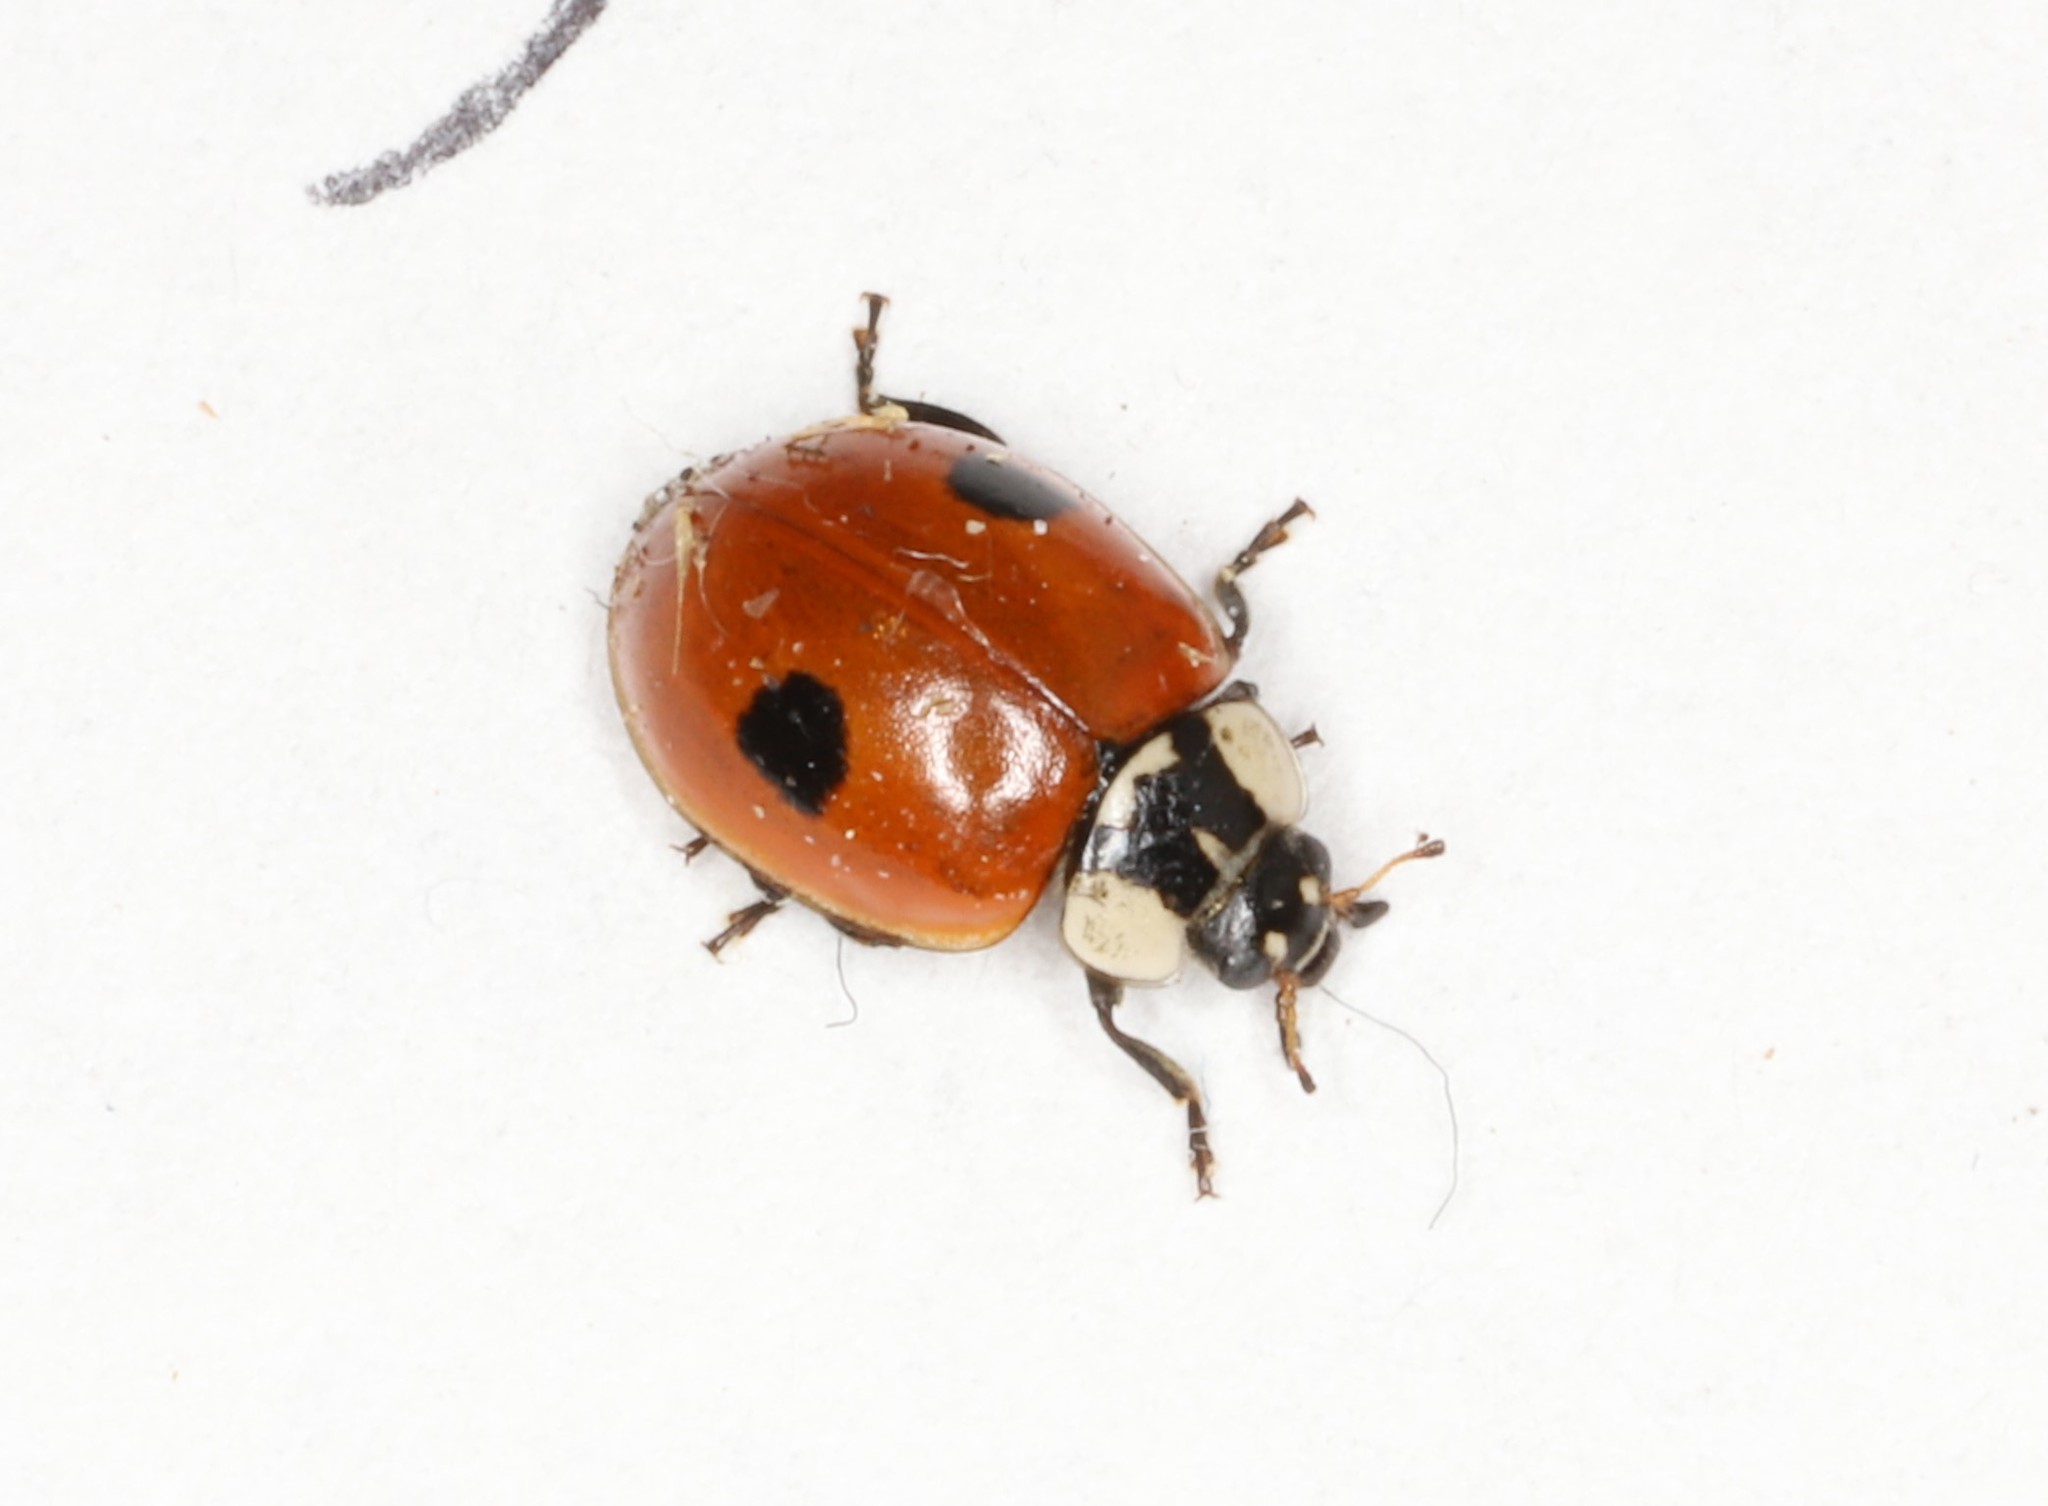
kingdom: Animalia
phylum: Arthropoda
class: Insecta
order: Coleoptera
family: Coccinellidae
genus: Adalia
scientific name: Adalia bipunctata
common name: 2-spot ladybird
